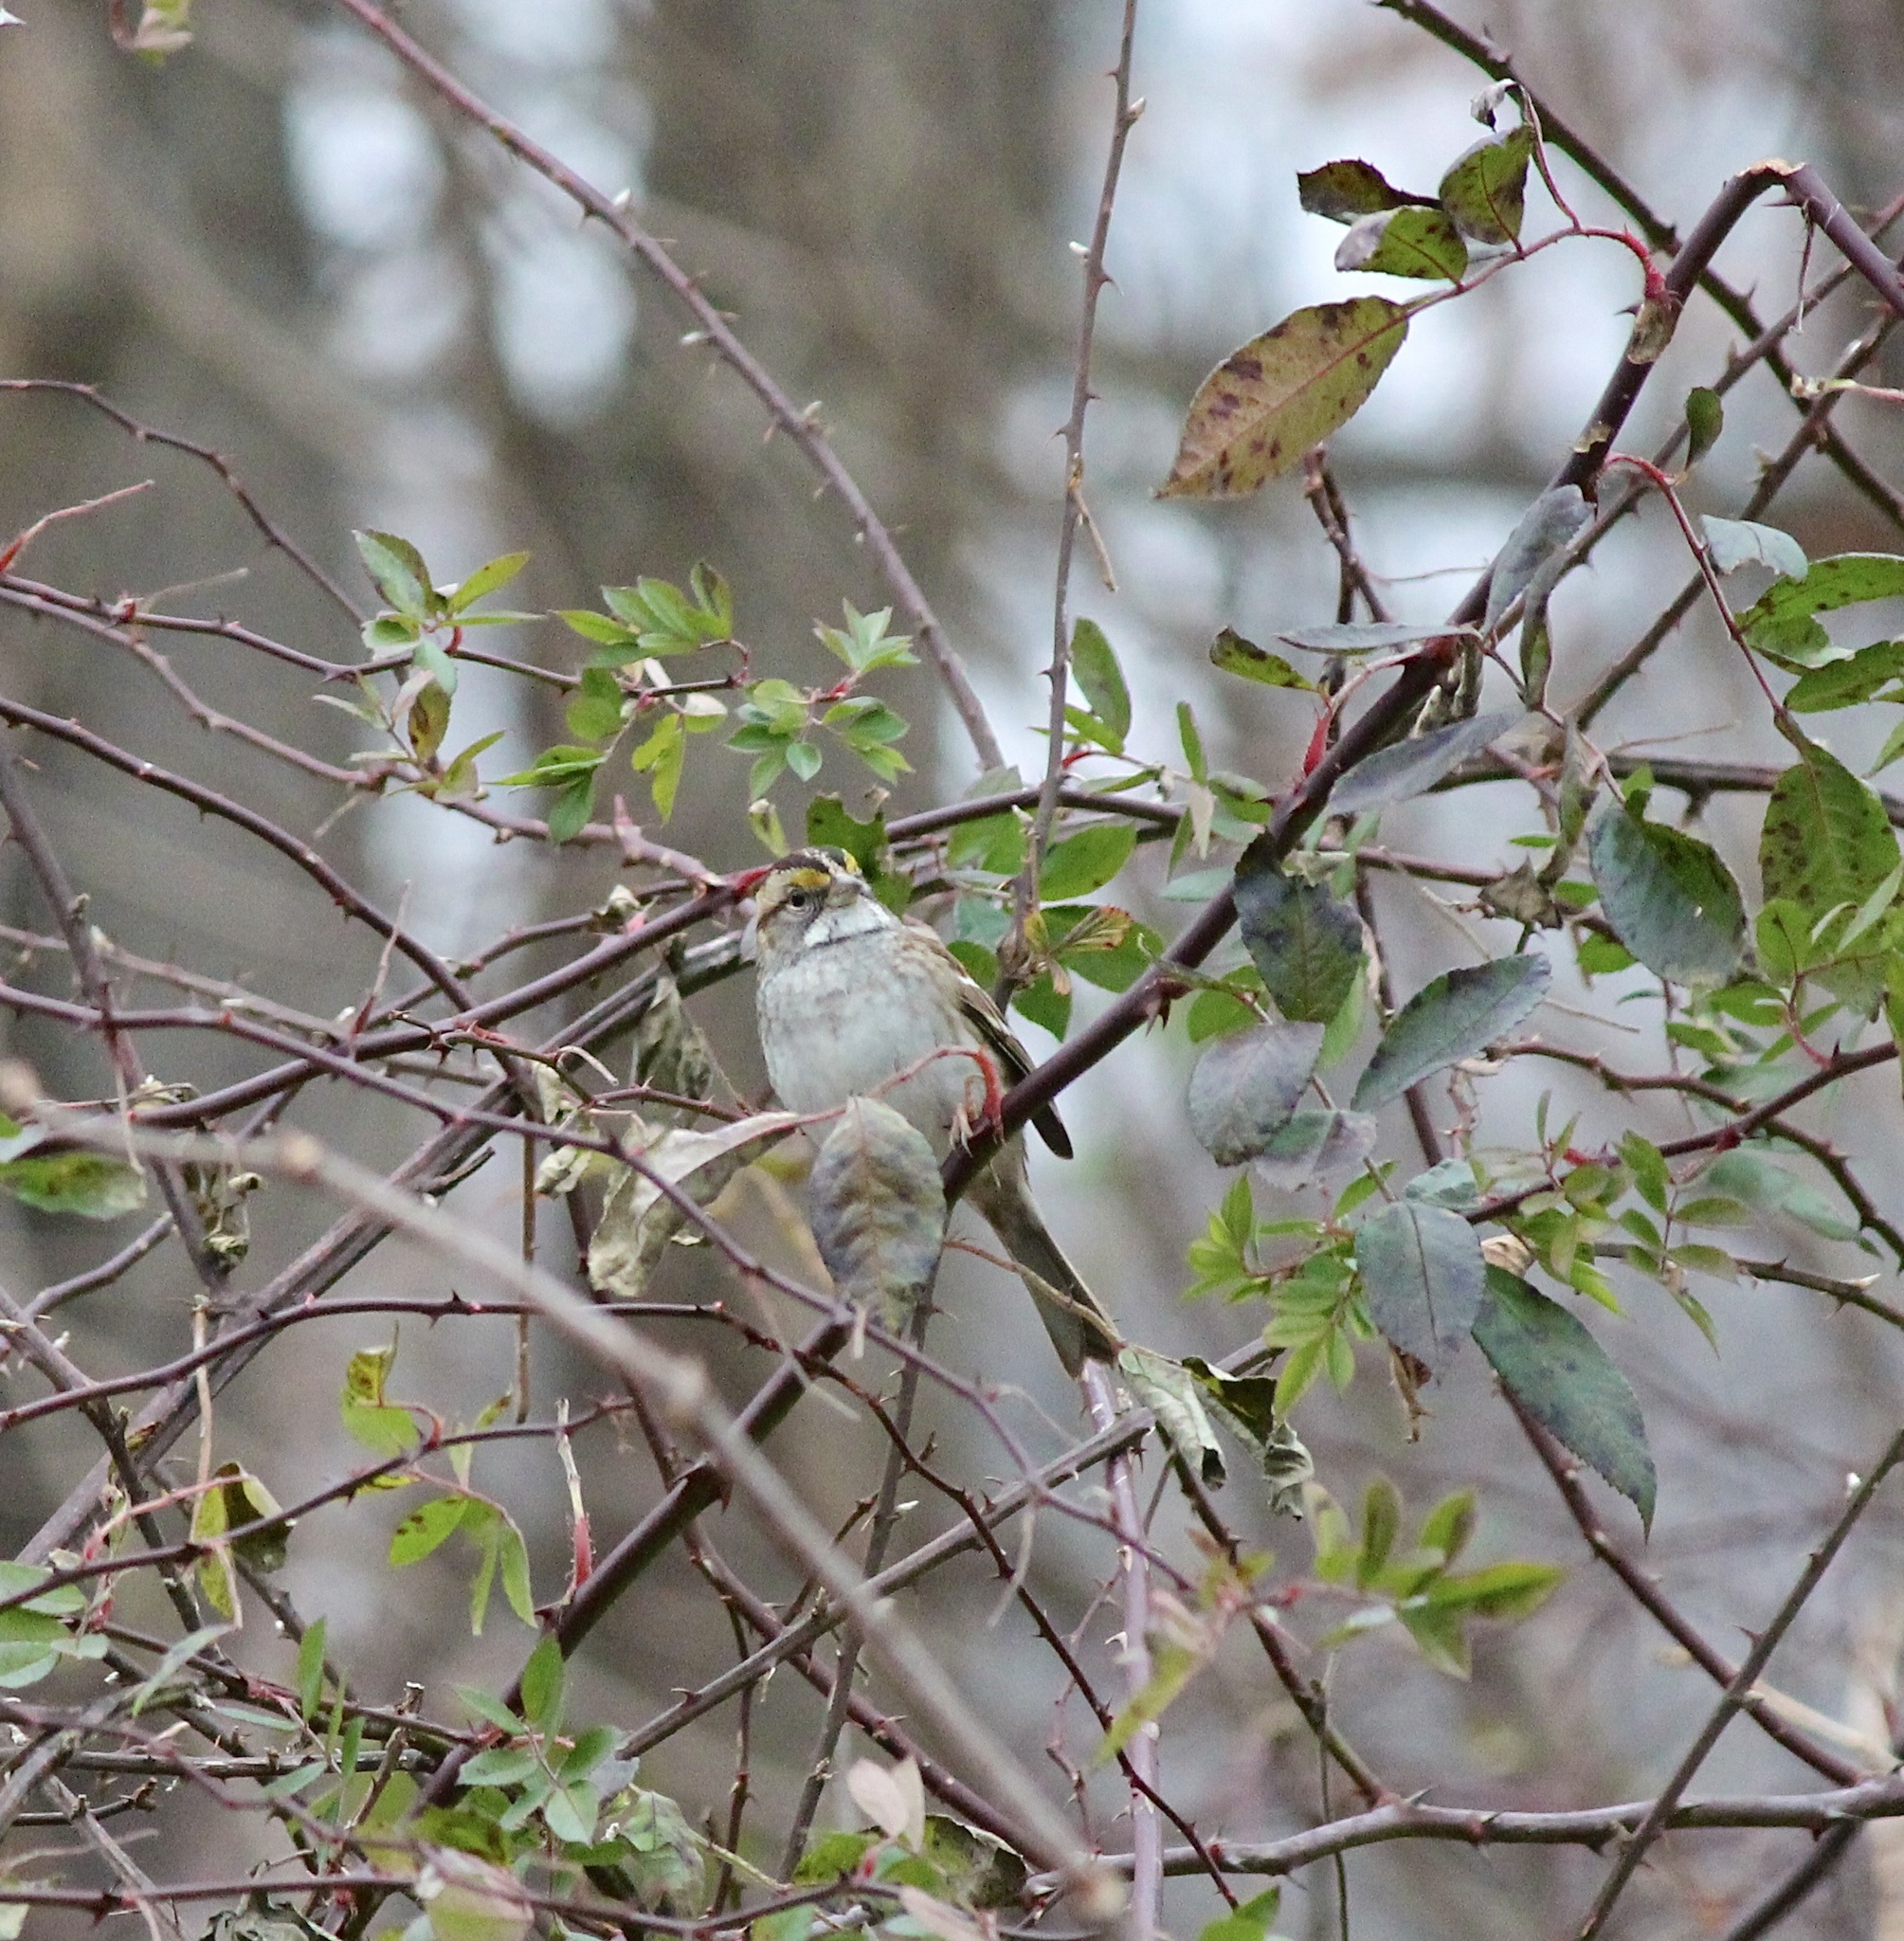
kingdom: Animalia
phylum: Chordata
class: Aves
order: Passeriformes
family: Passerellidae
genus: Zonotrichia
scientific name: Zonotrichia albicollis
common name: White-throated sparrow
